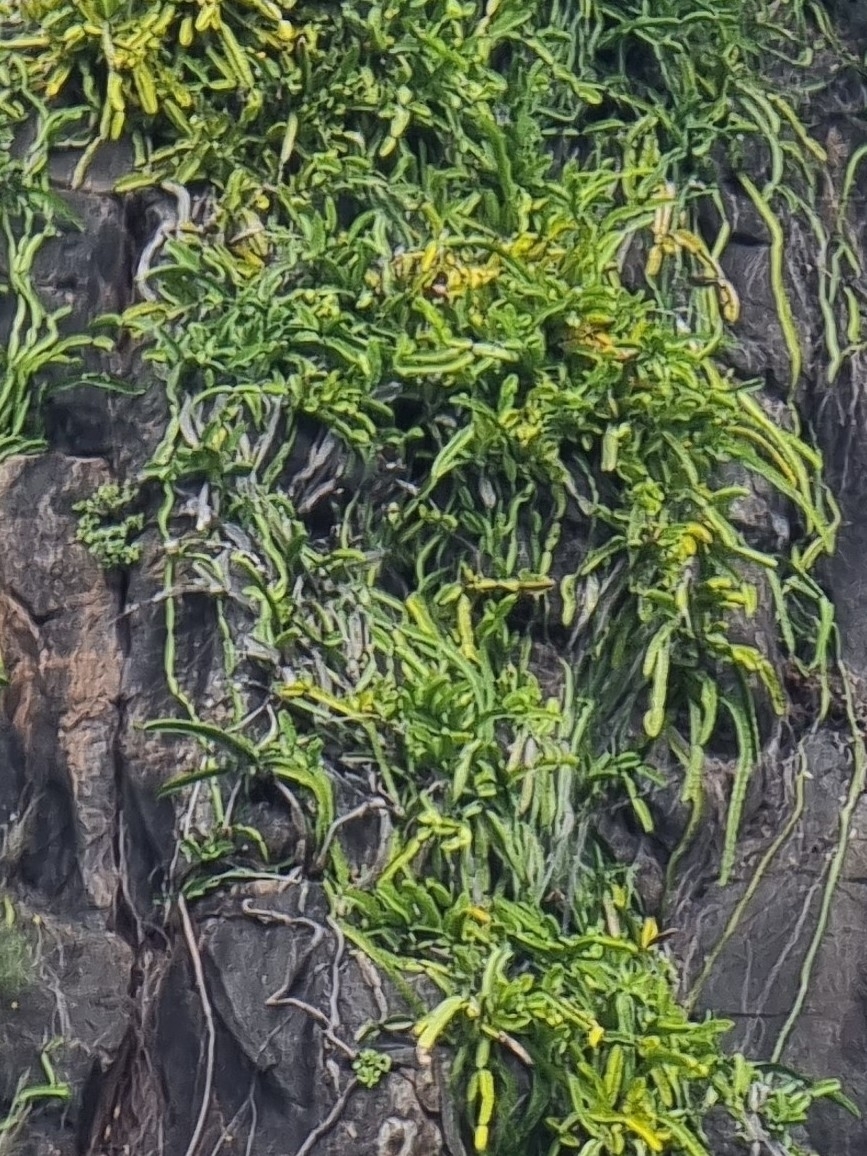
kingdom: Plantae
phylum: Tracheophyta
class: Magnoliopsida
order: Caryophyllales
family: Cactaceae
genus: Selenicereus
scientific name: Selenicereus undatus
